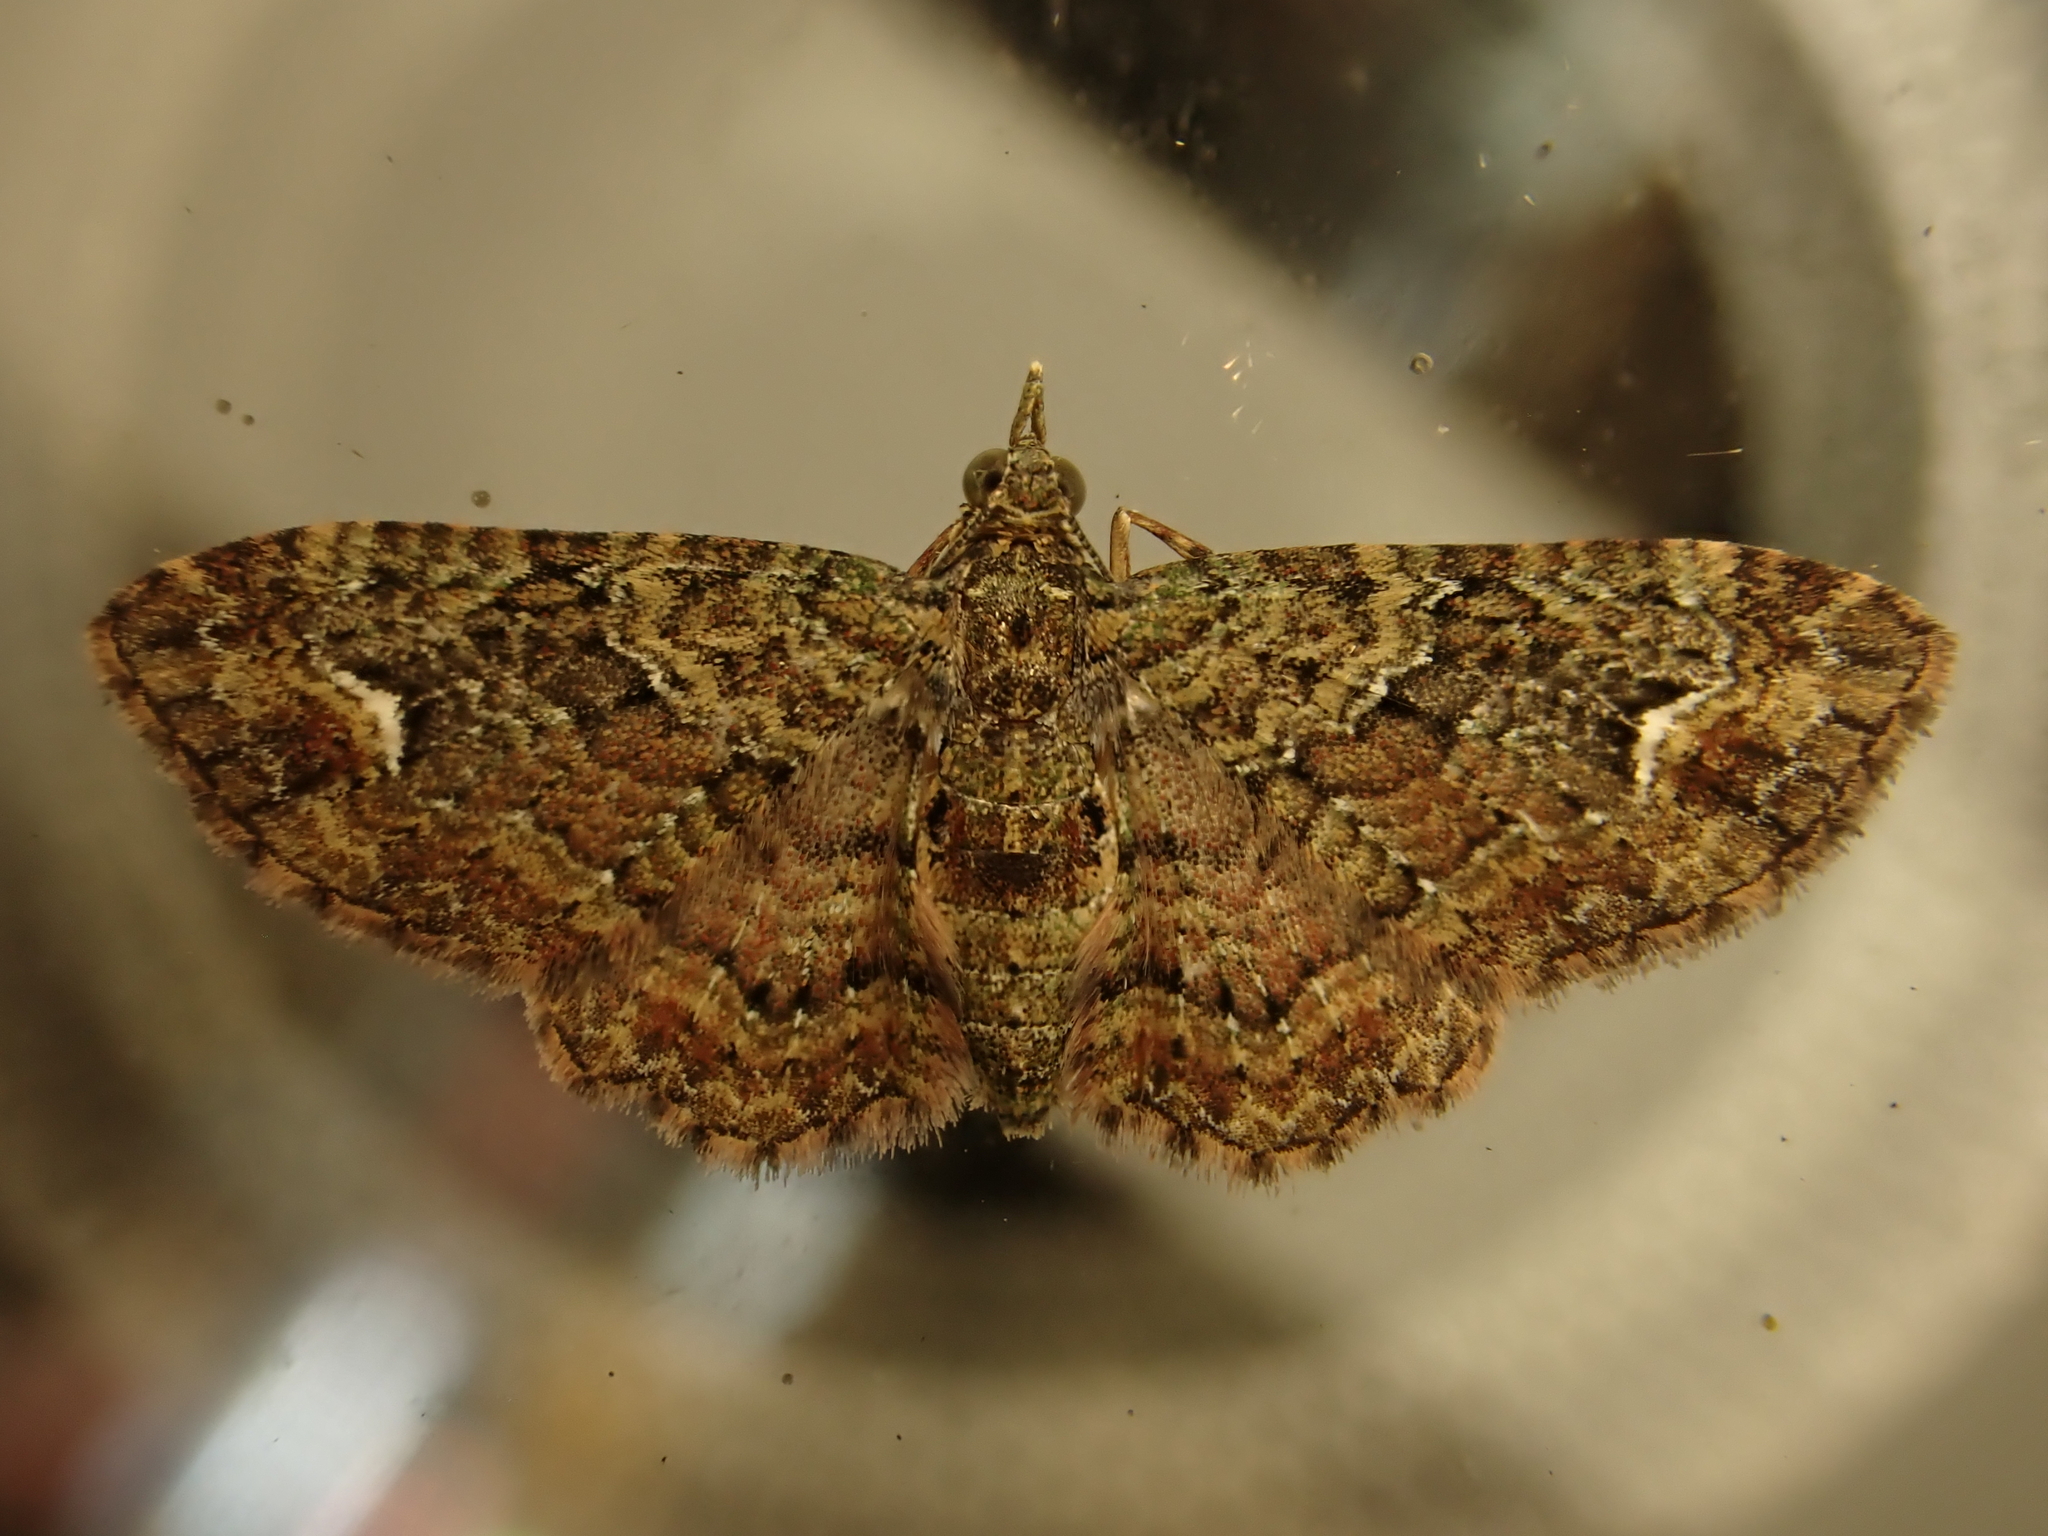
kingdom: Animalia
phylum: Arthropoda
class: Insecta
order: Lepidoptera
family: Geometridae
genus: Pasiphilodes
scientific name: Pasiphilodes testulata
